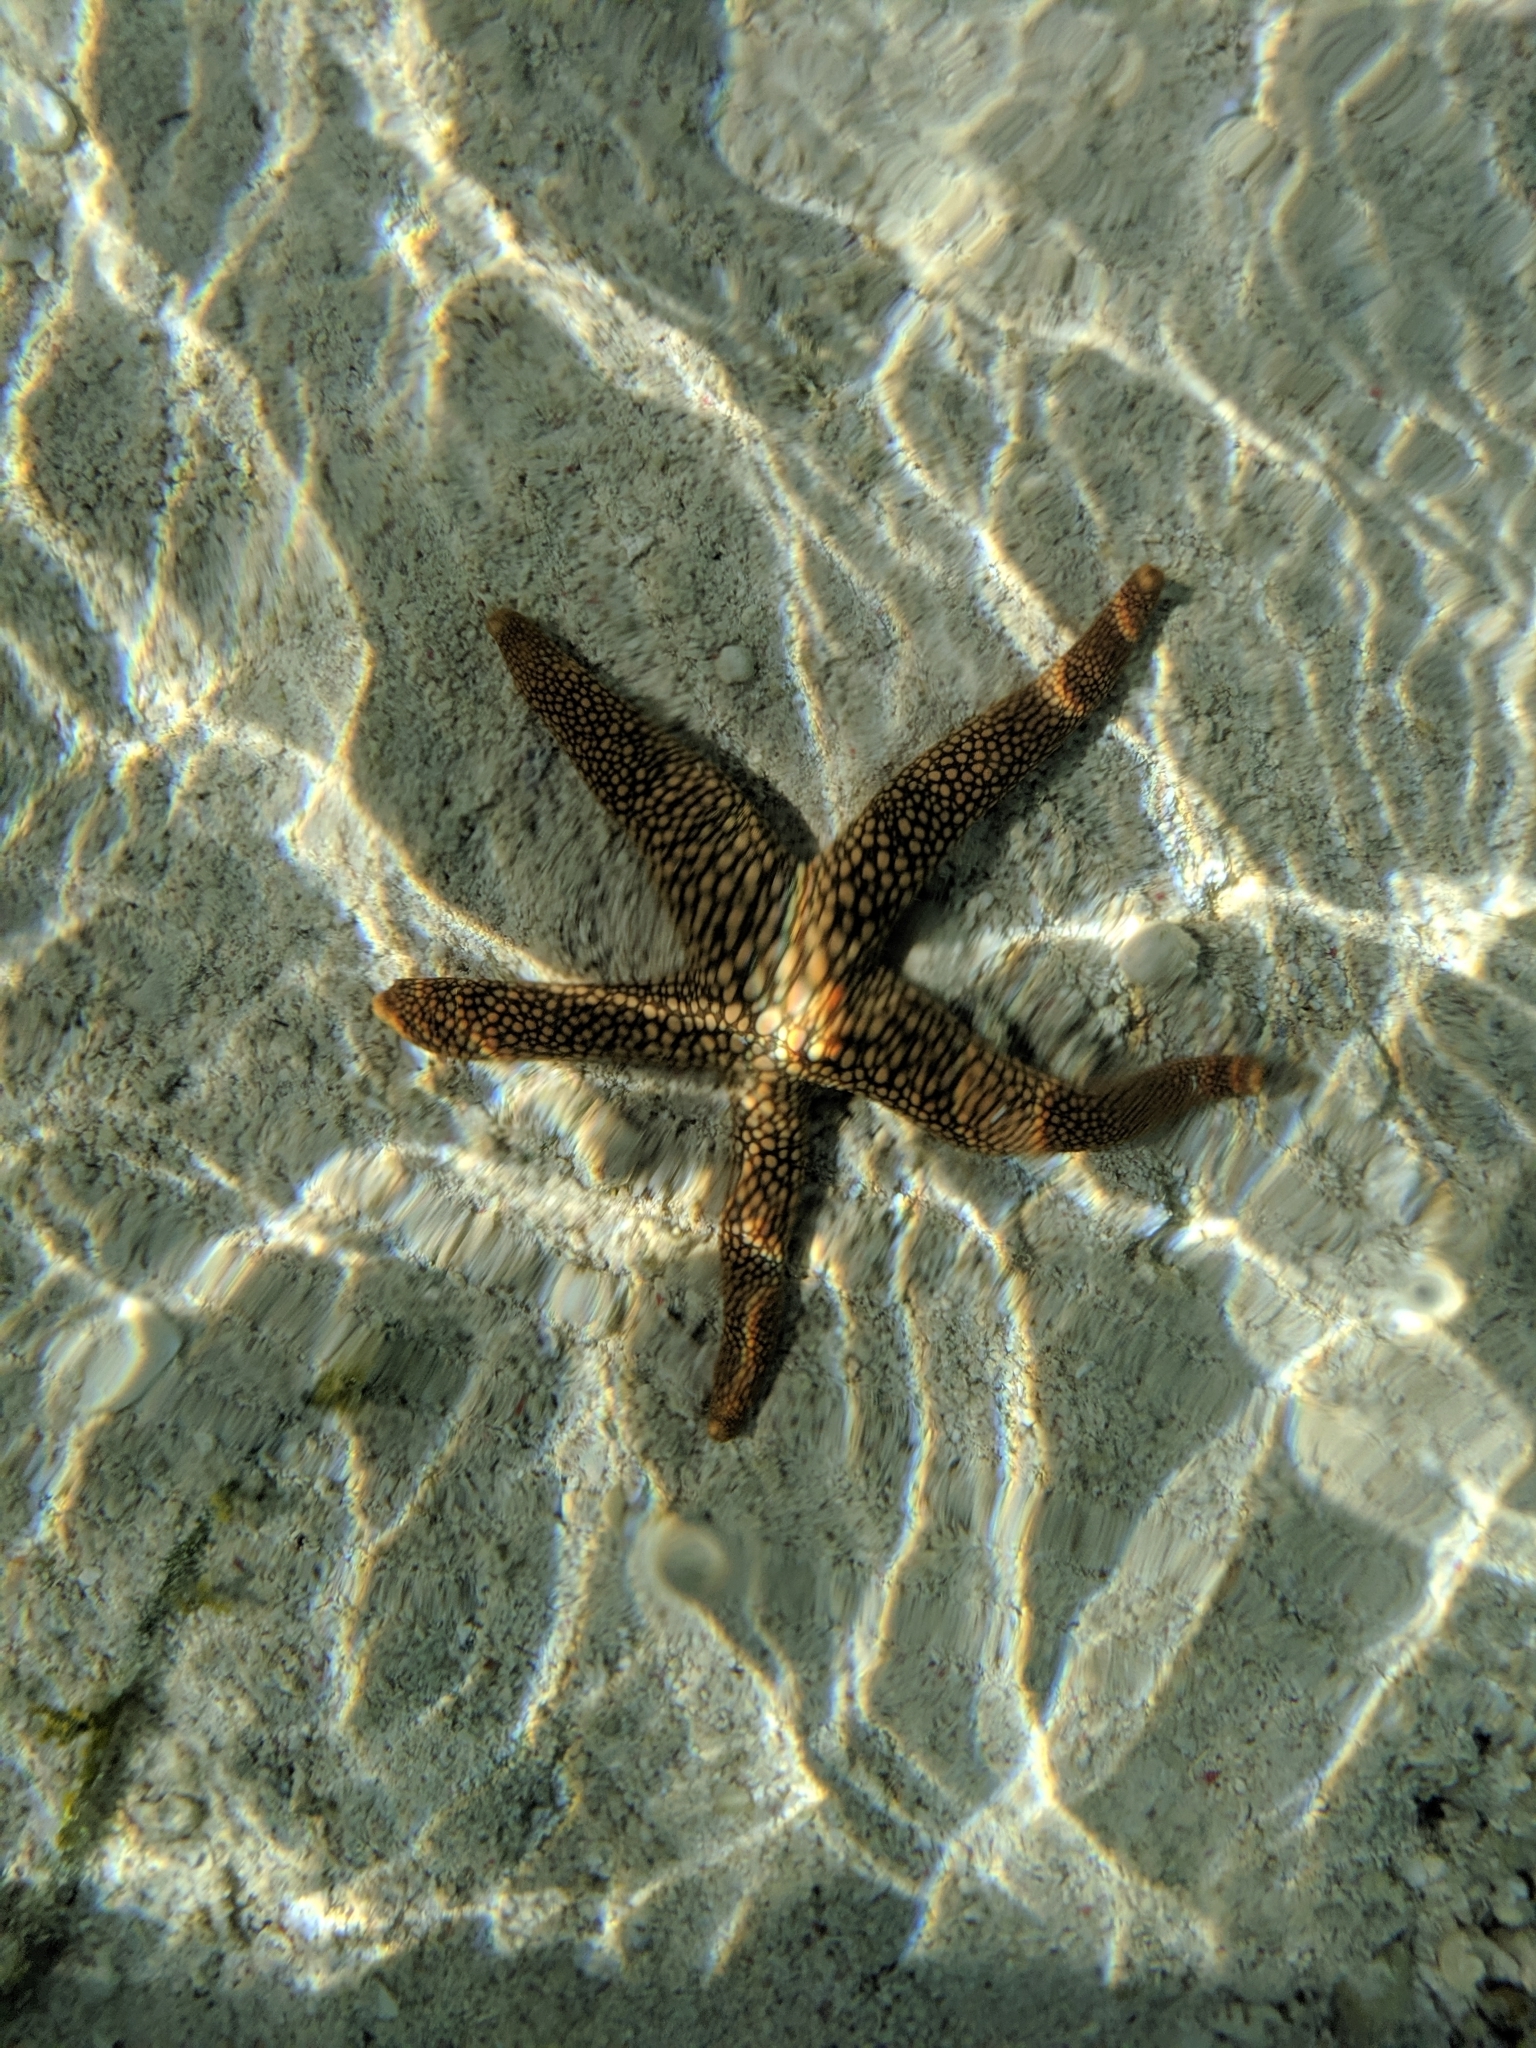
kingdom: Animalia
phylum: Echinodermata
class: Asteroidea
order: Valvatida
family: Ophidiasteridae
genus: Nardoa
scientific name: Nardoa novaecaledoniae
